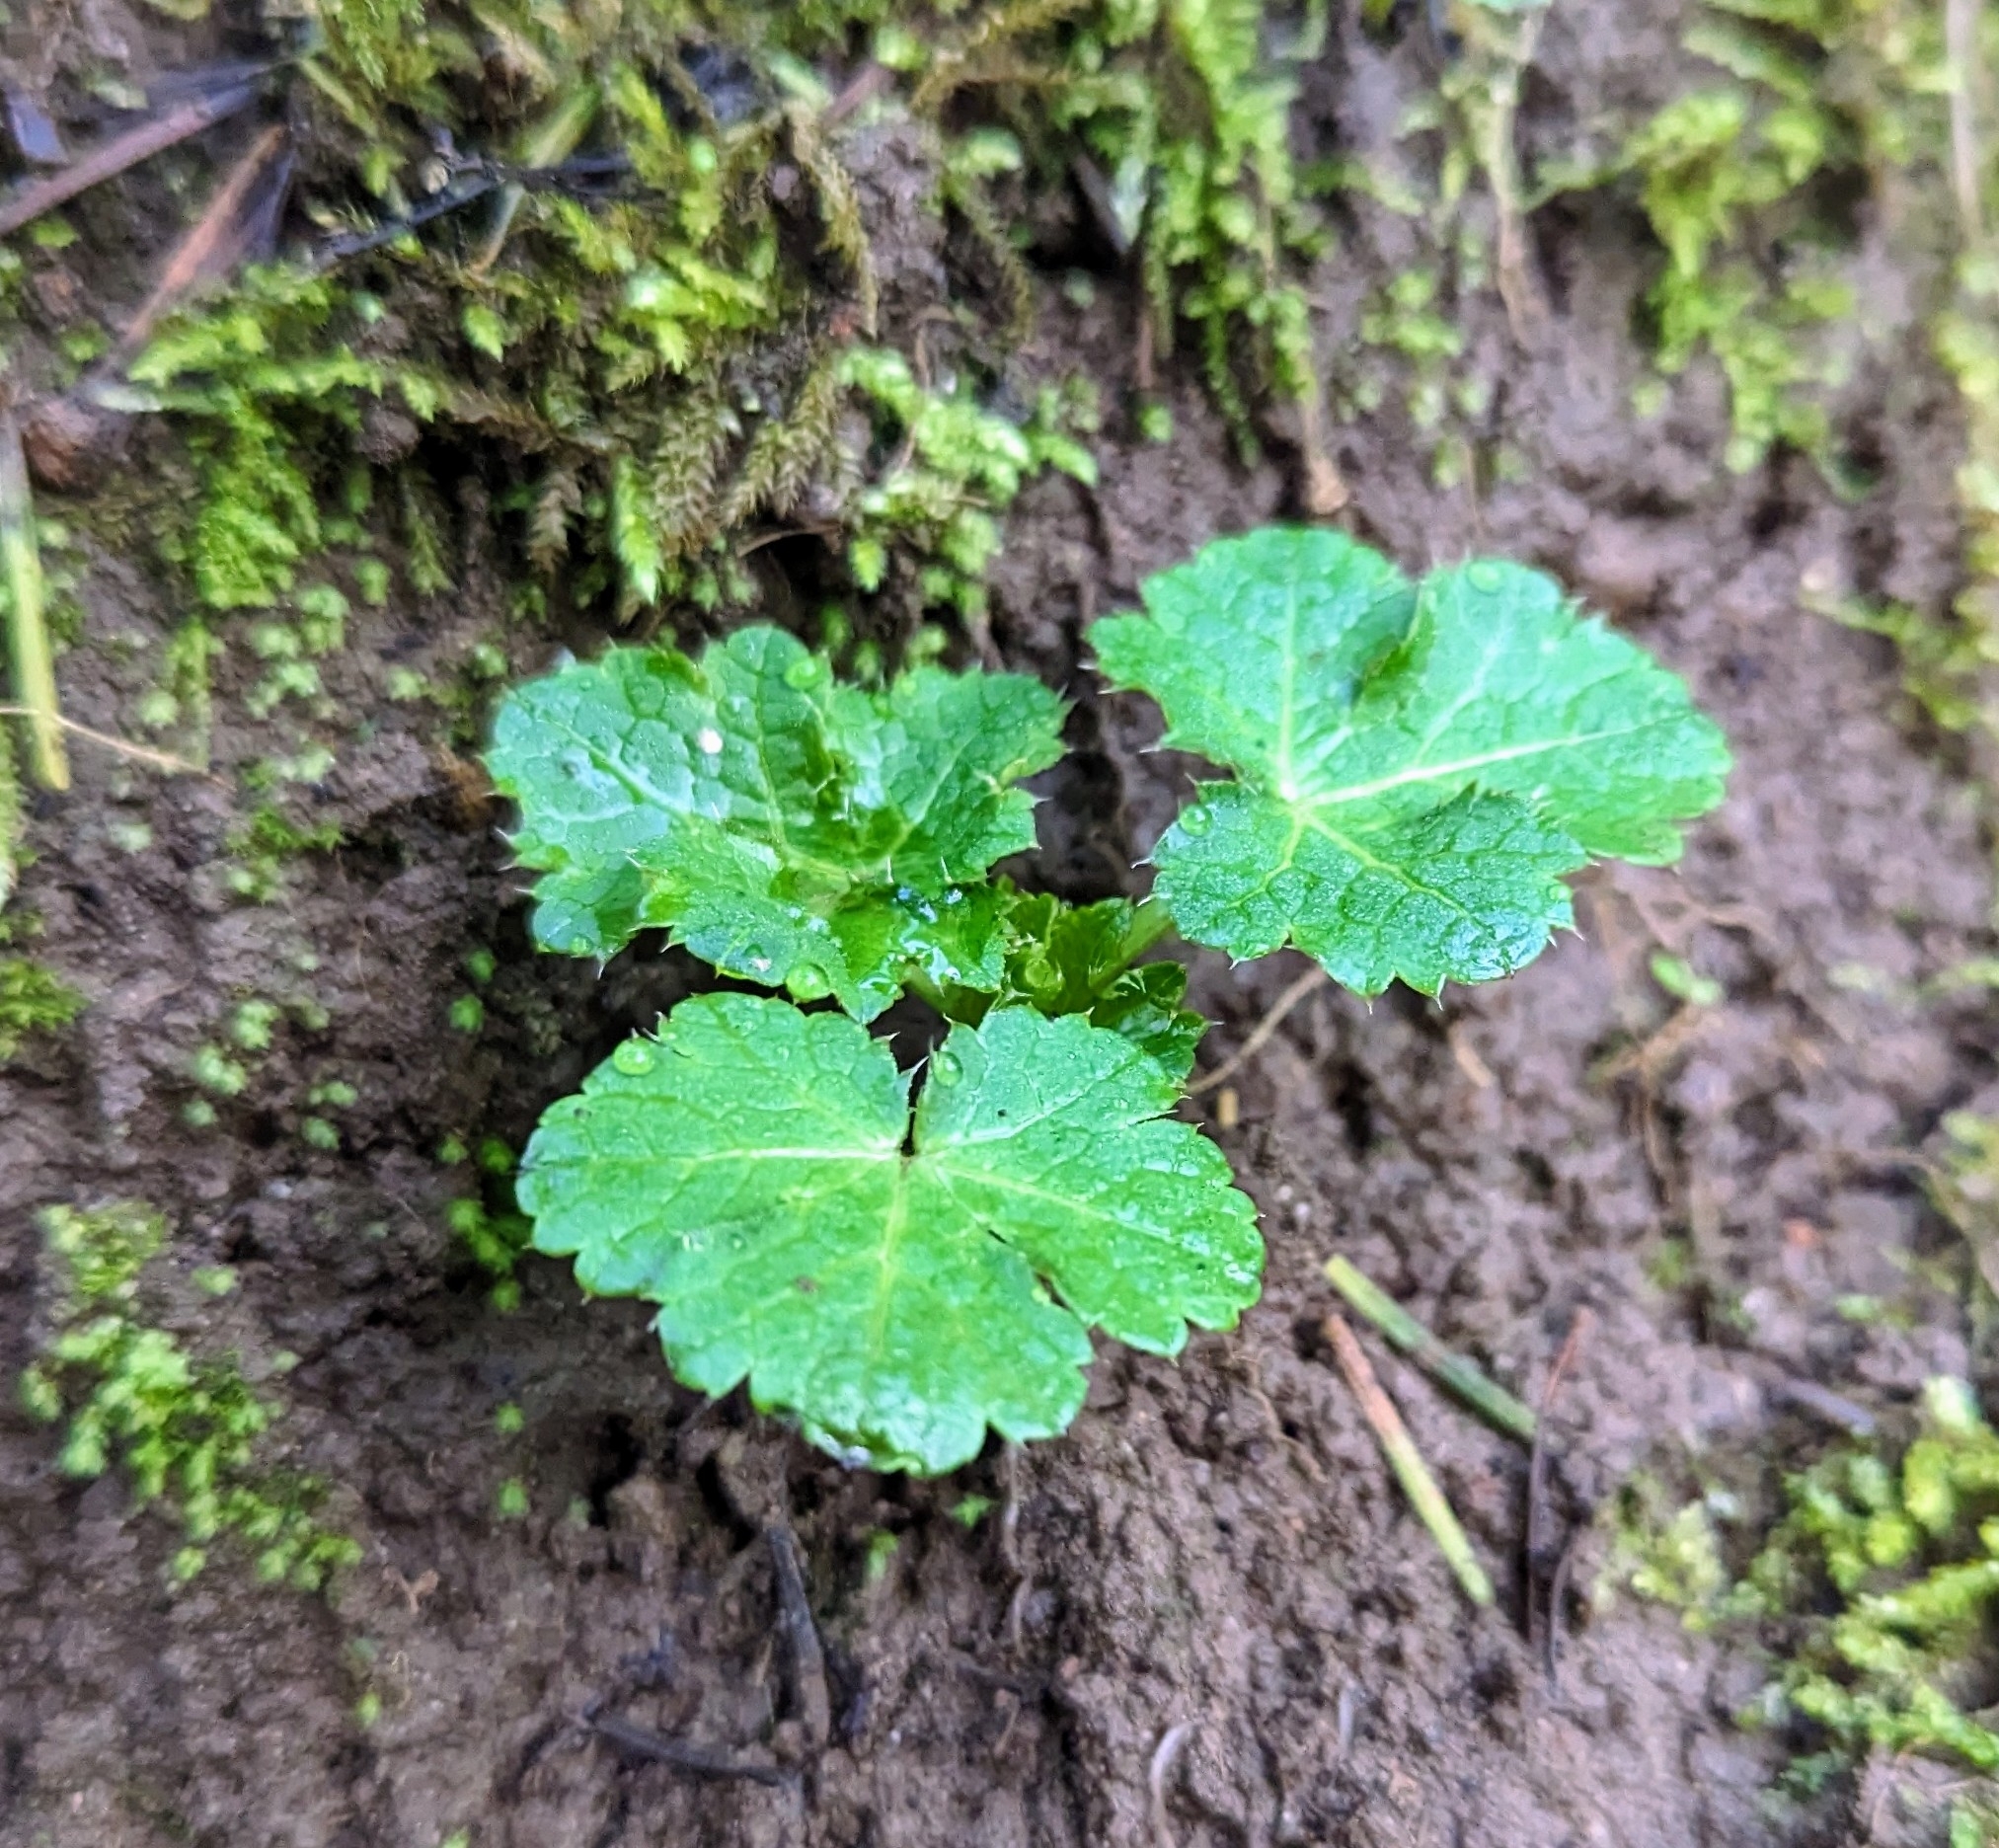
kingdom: Plantae
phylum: Tracheophyta
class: Magnoliopsida
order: Apiales
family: Apiaceae
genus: Sanicula
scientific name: Sanicula crassicaulis
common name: Western snakeroot
